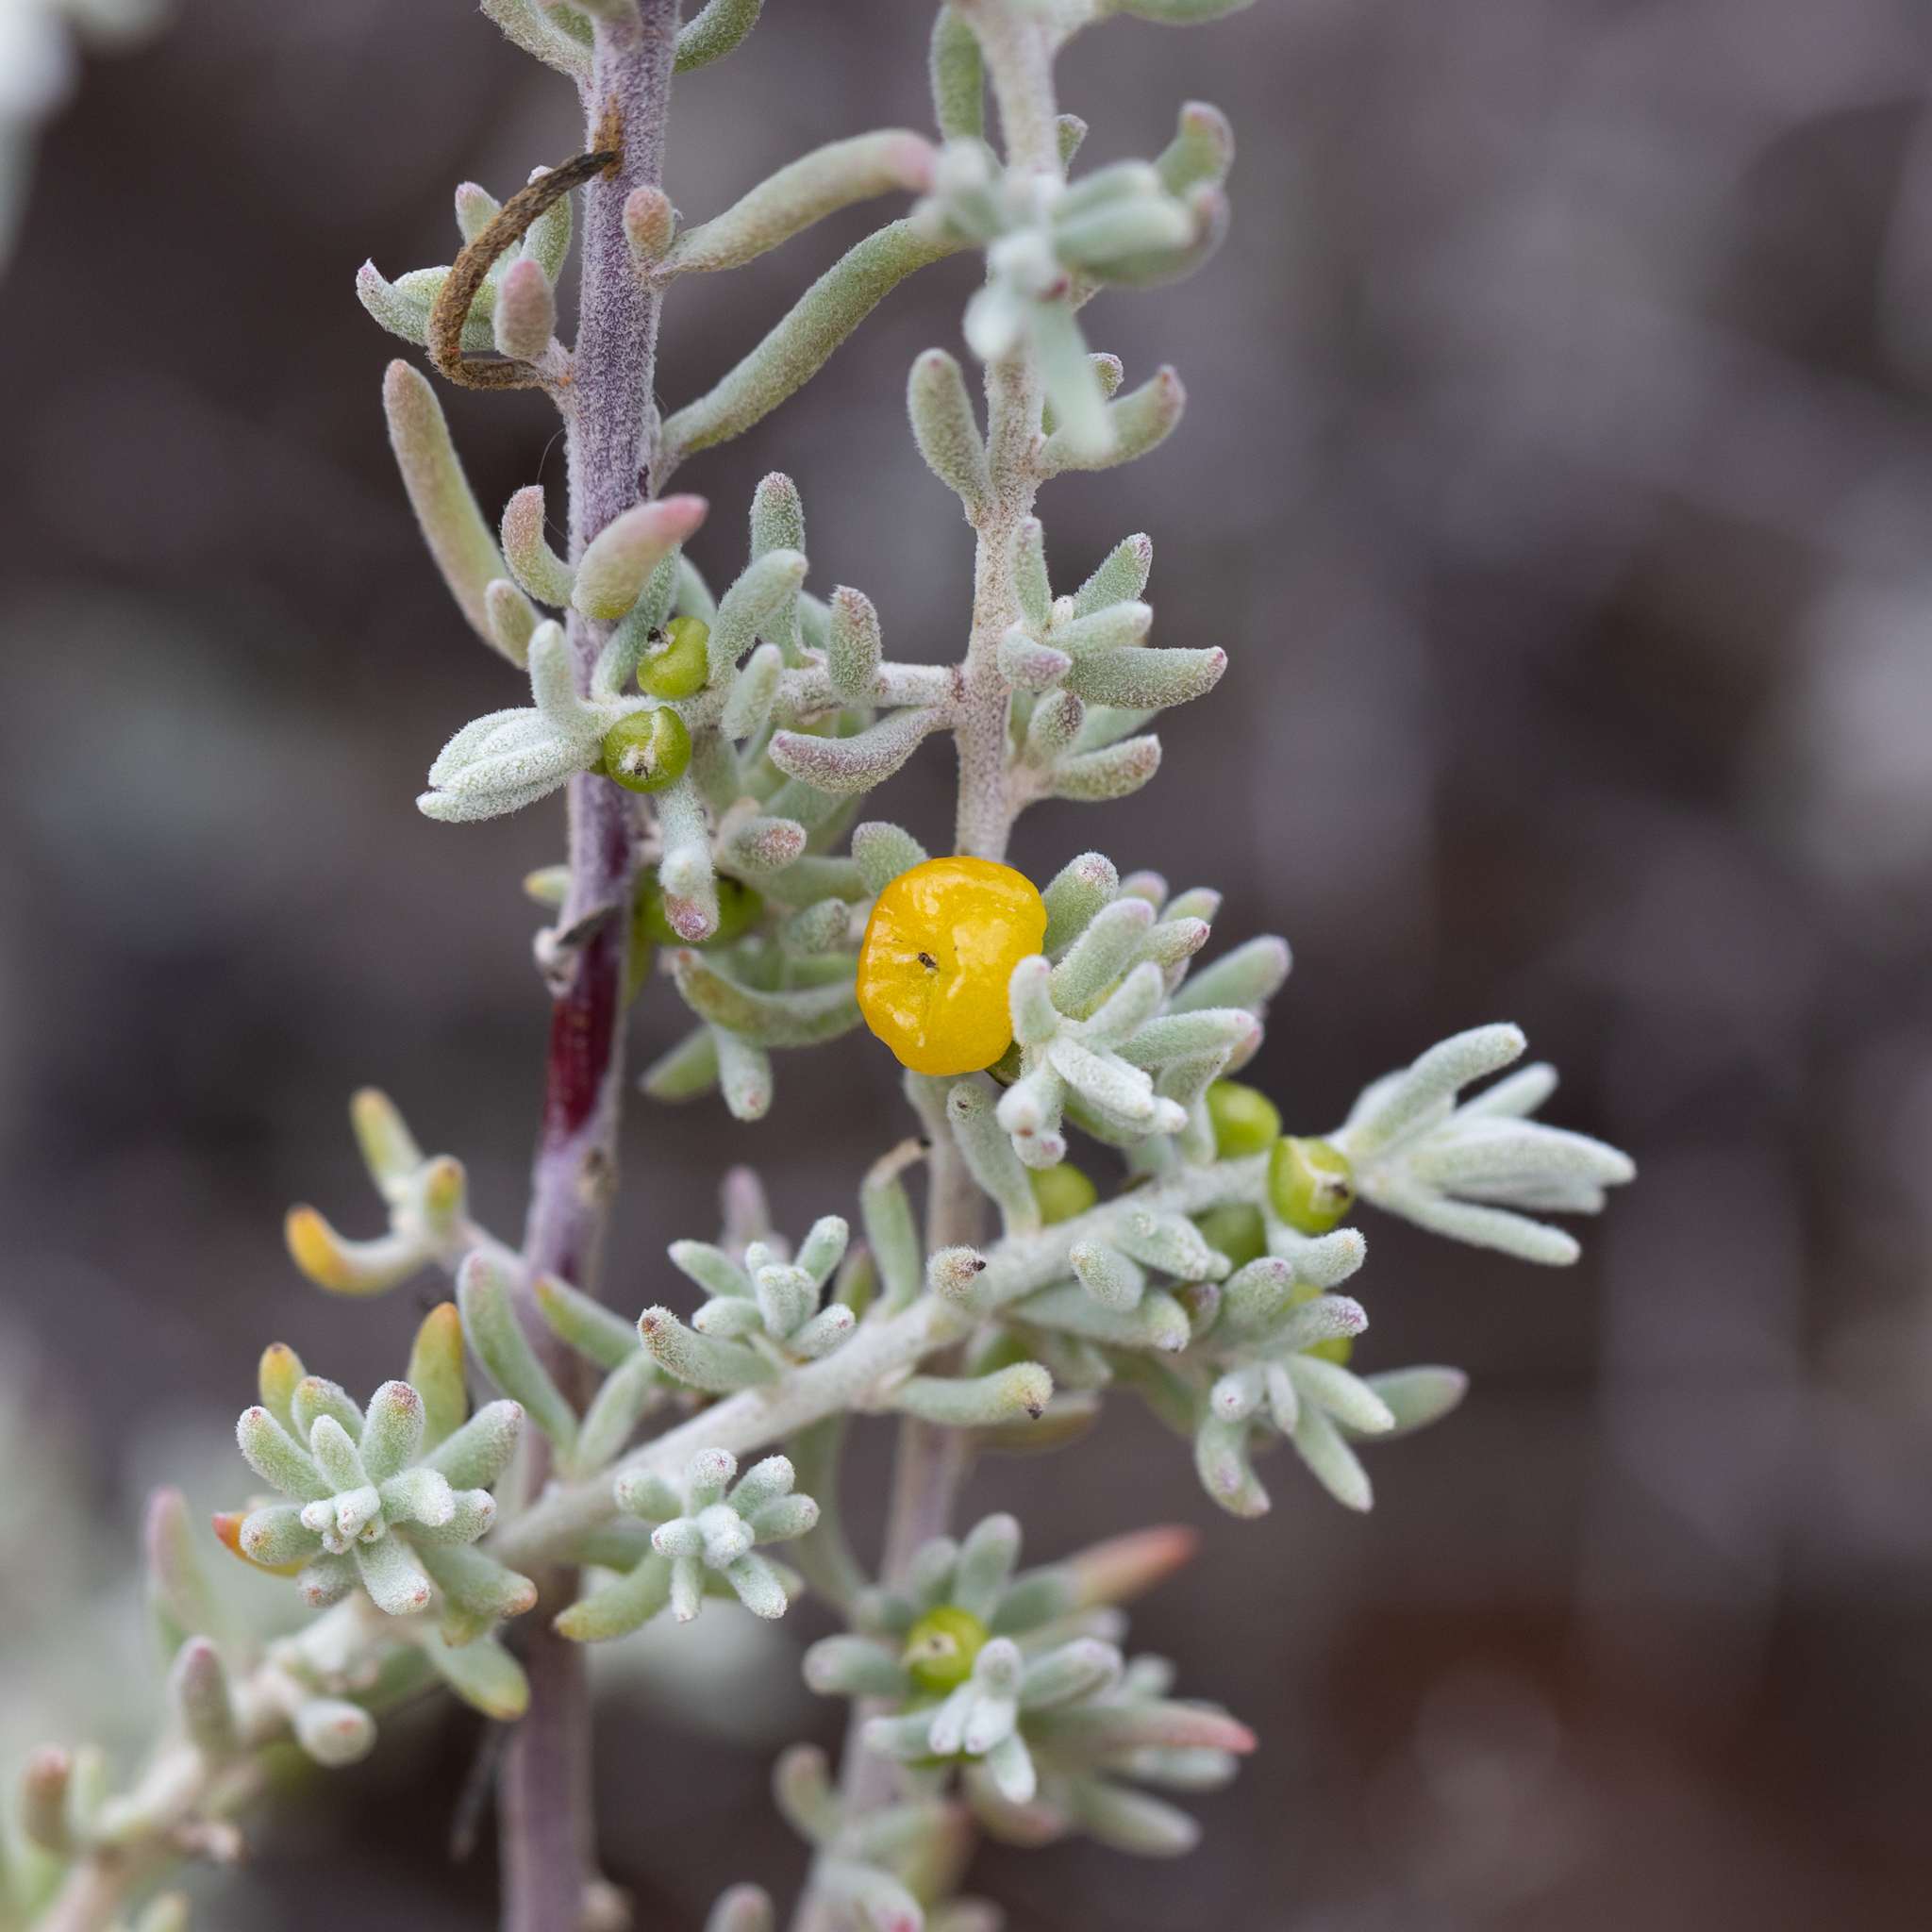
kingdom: Plantae
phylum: Tracheophyta
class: Magnoliopsida
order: Caryophyllales
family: Amaranthaceae
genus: Enchylaena
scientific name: Enchylaena tomentosa
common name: Ruby saltbush
